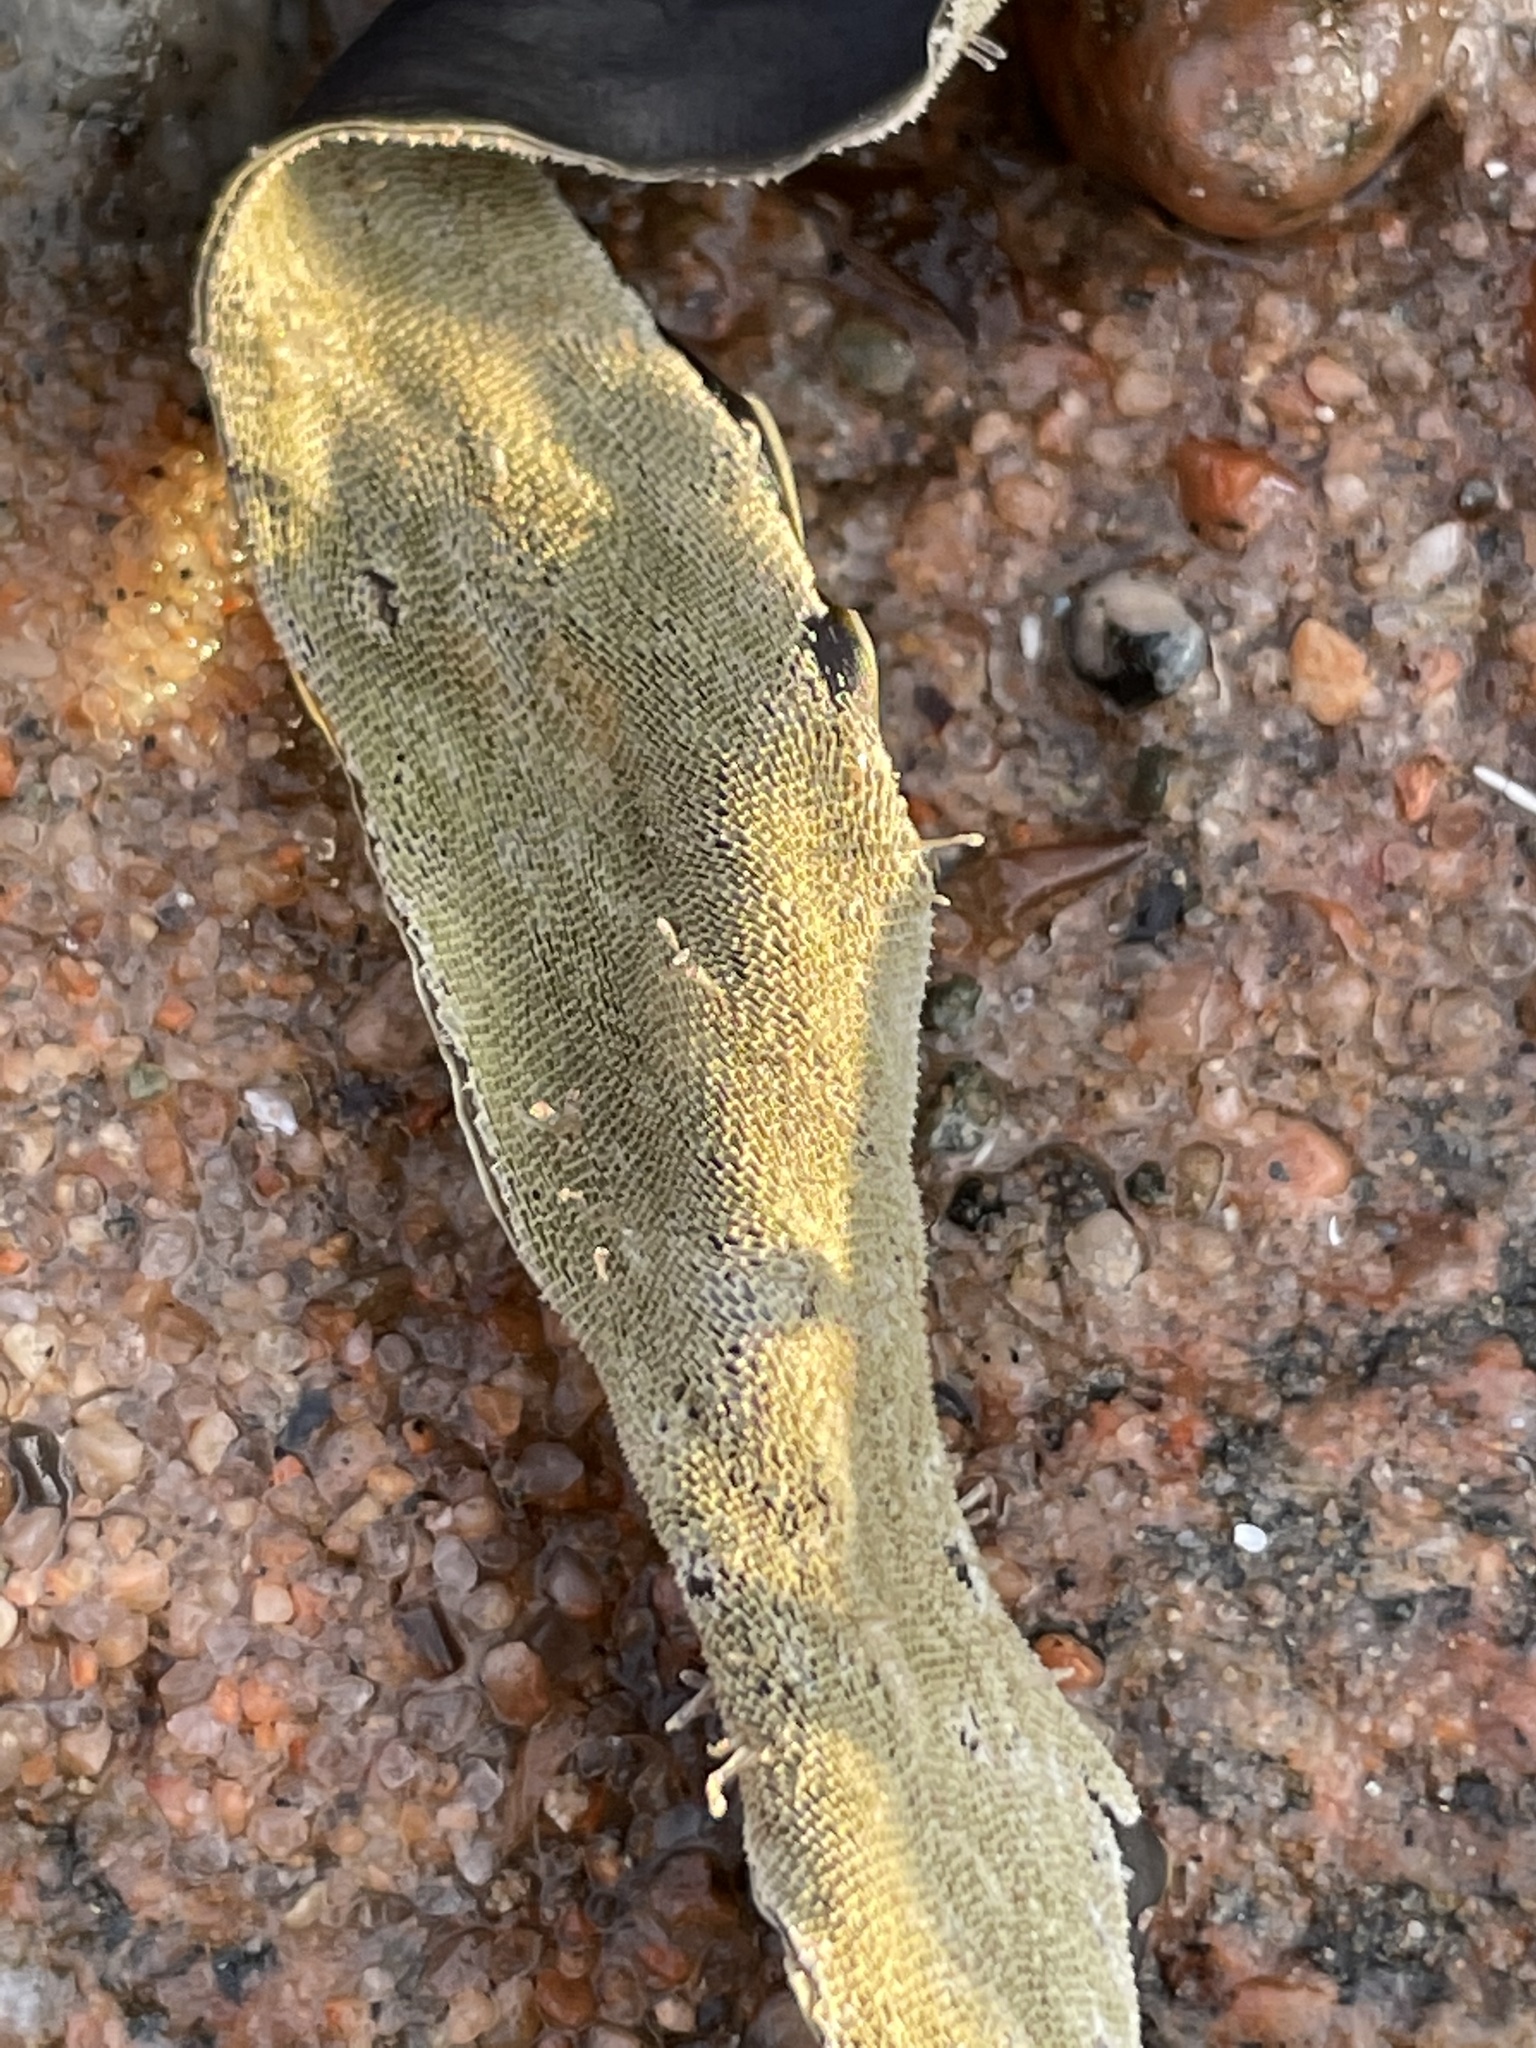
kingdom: Animalia
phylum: Bryozoa
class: Gymnolaemata
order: Cheilostomatida
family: Membraniporidae
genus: Membranipora
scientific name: Membranipora membranacea
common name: Sea mat
